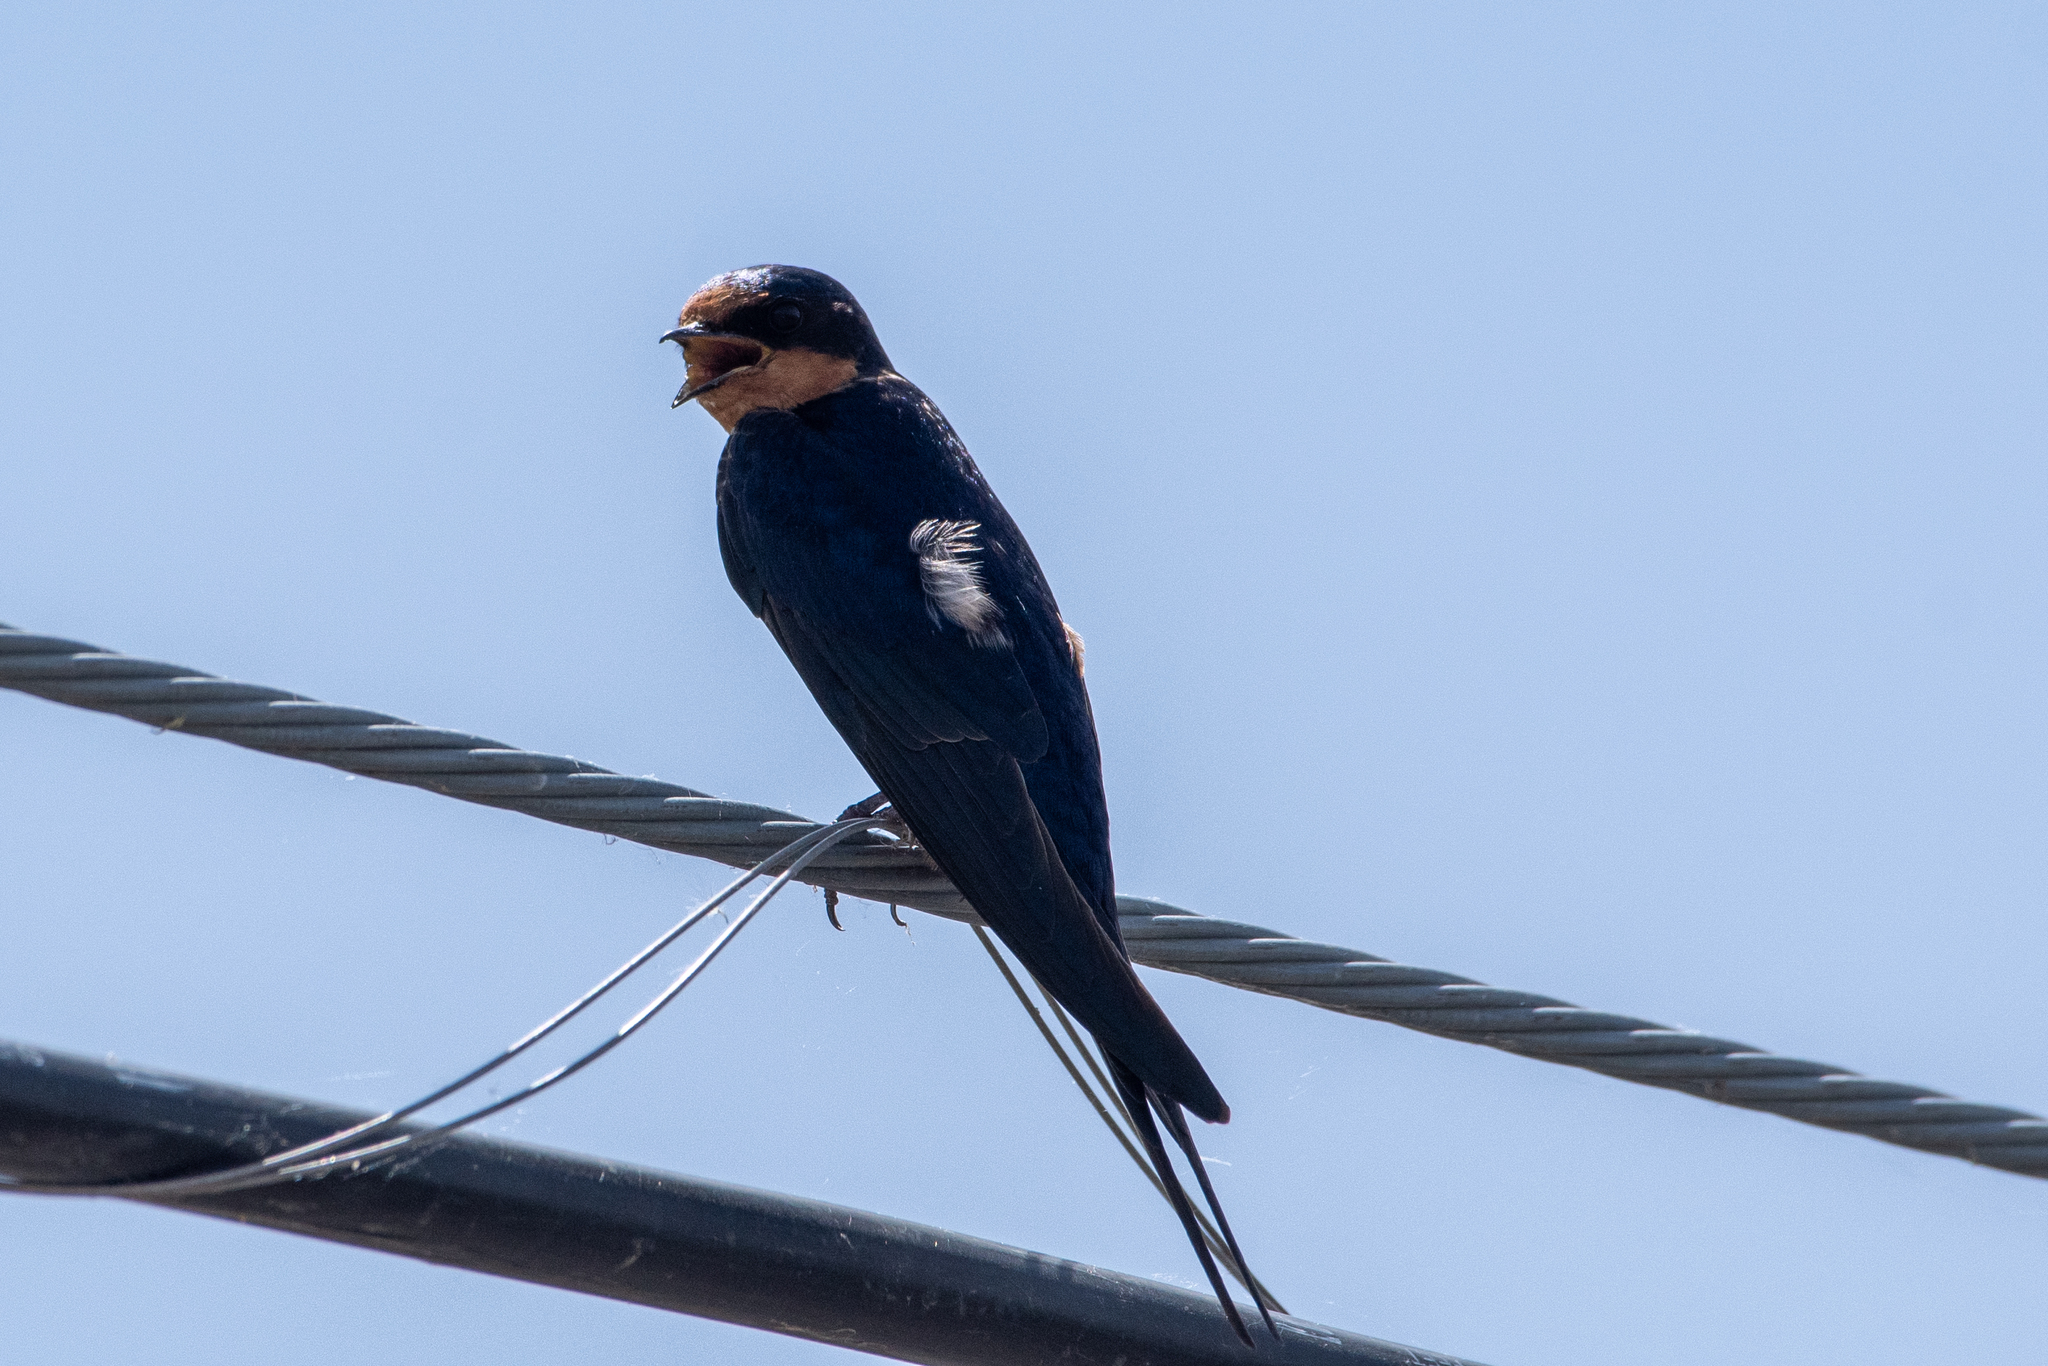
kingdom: Animalia
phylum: Chordata
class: Aves
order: Passeriformes
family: Hirundinidae
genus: Hirundo
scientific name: Hirundo rustica
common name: Barn swallow
